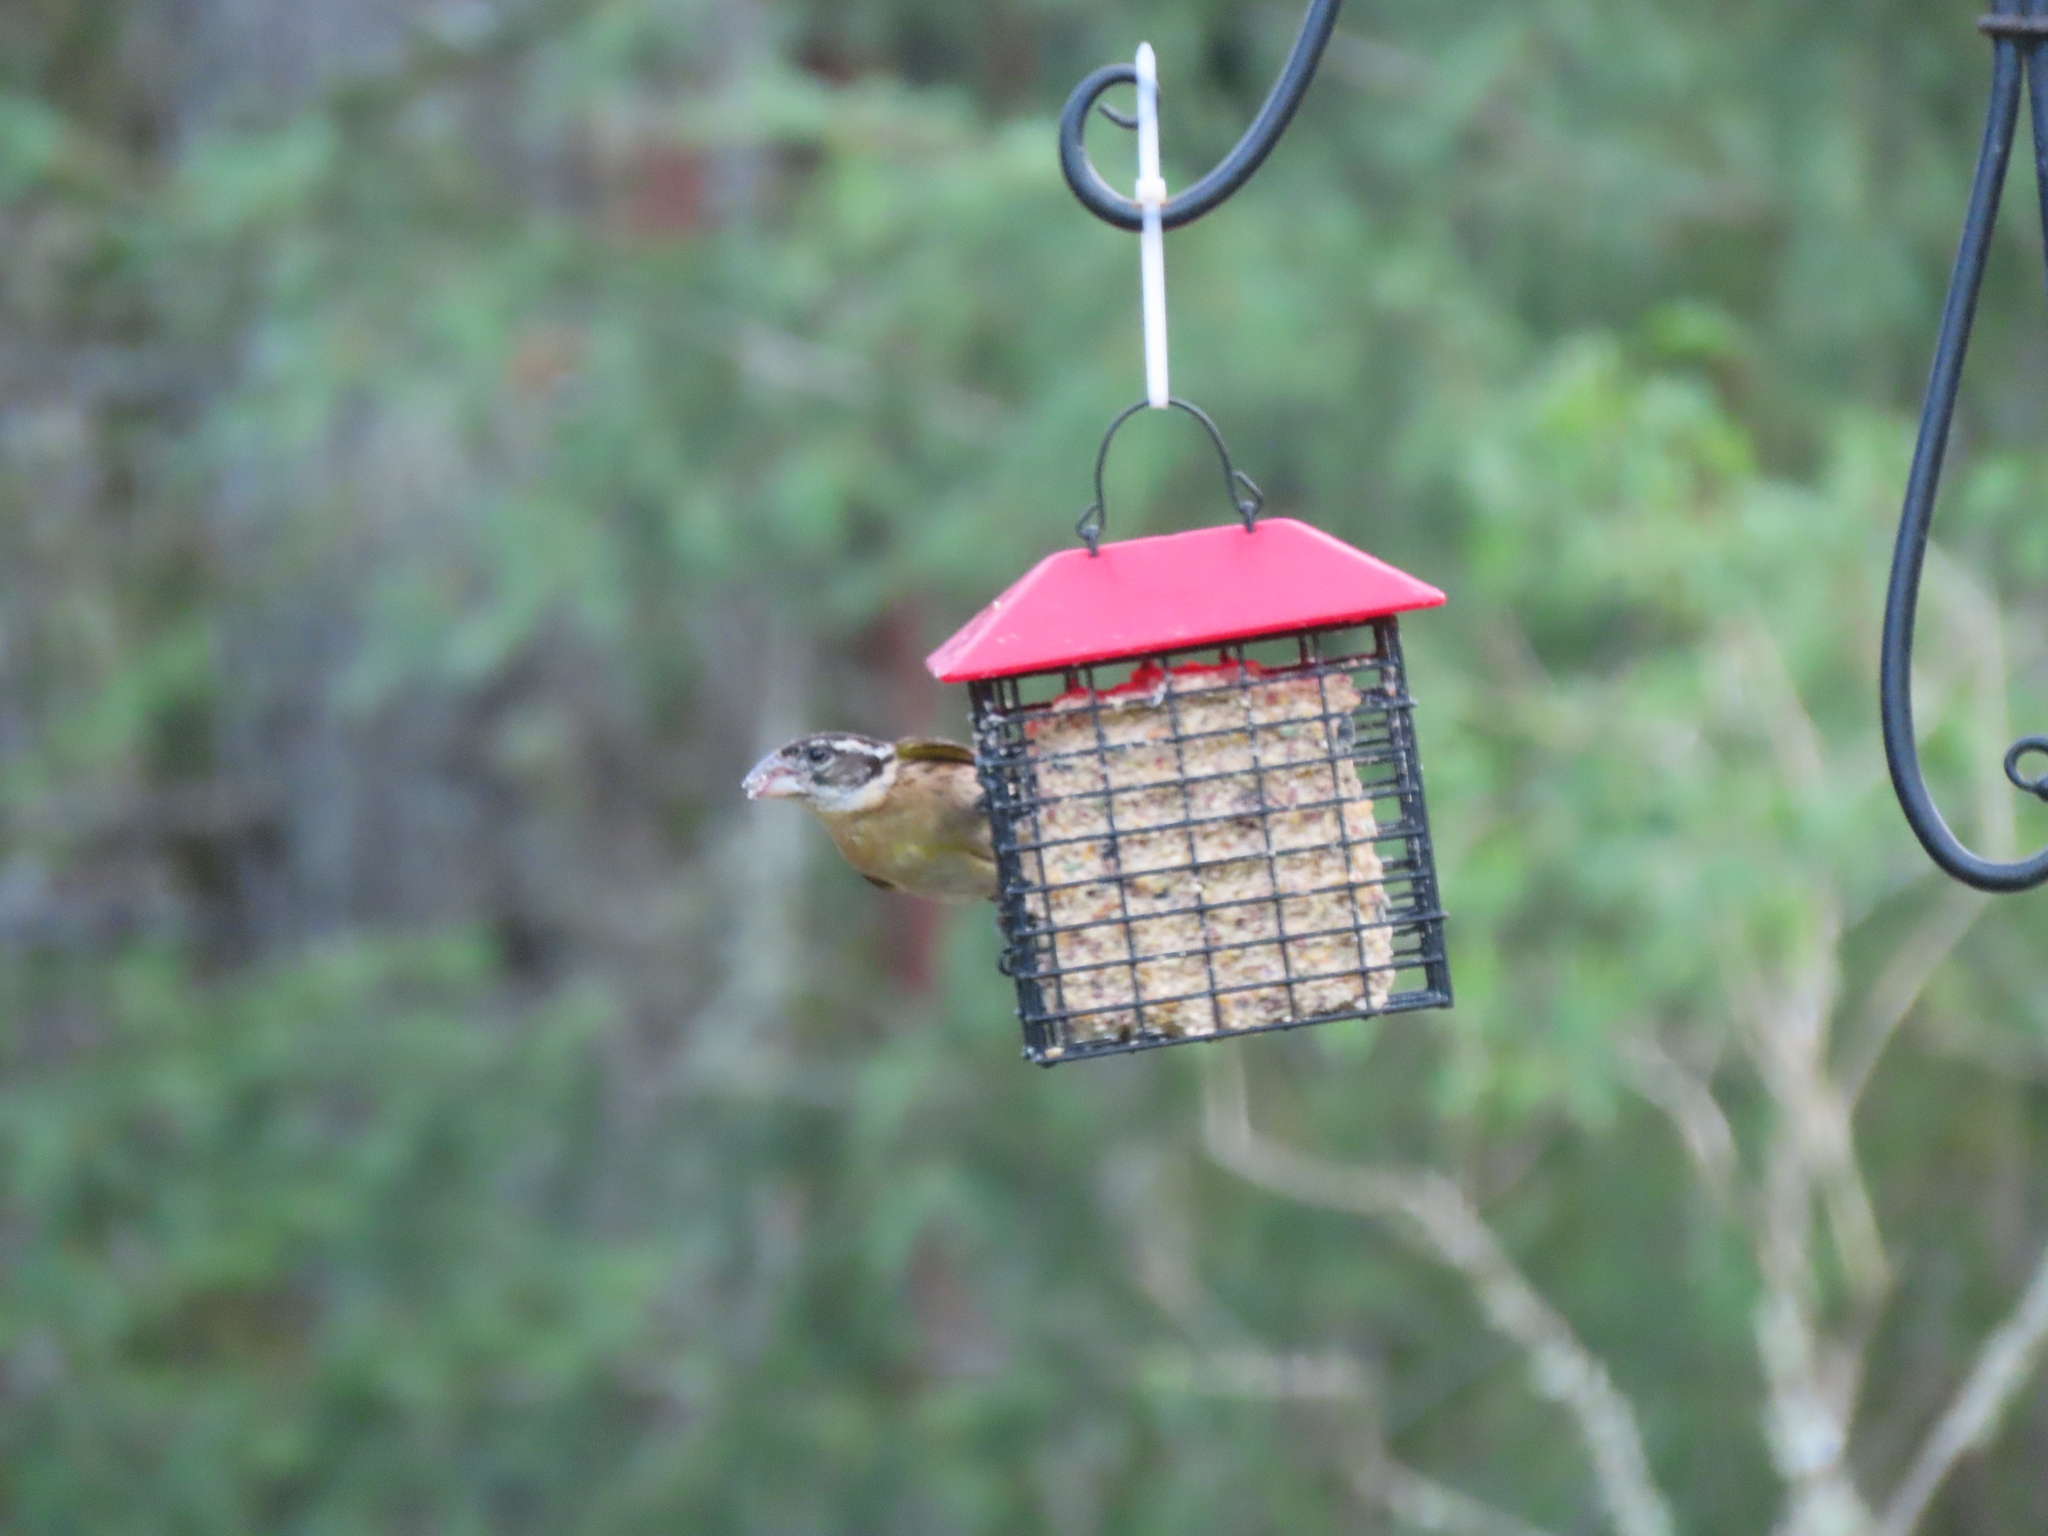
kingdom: Animalia
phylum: Chordata
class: Aves
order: Passeriformes
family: Cardinalidae
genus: Pheucticus
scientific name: Pheucticus melanocephalus
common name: Black-headed grosbeak
